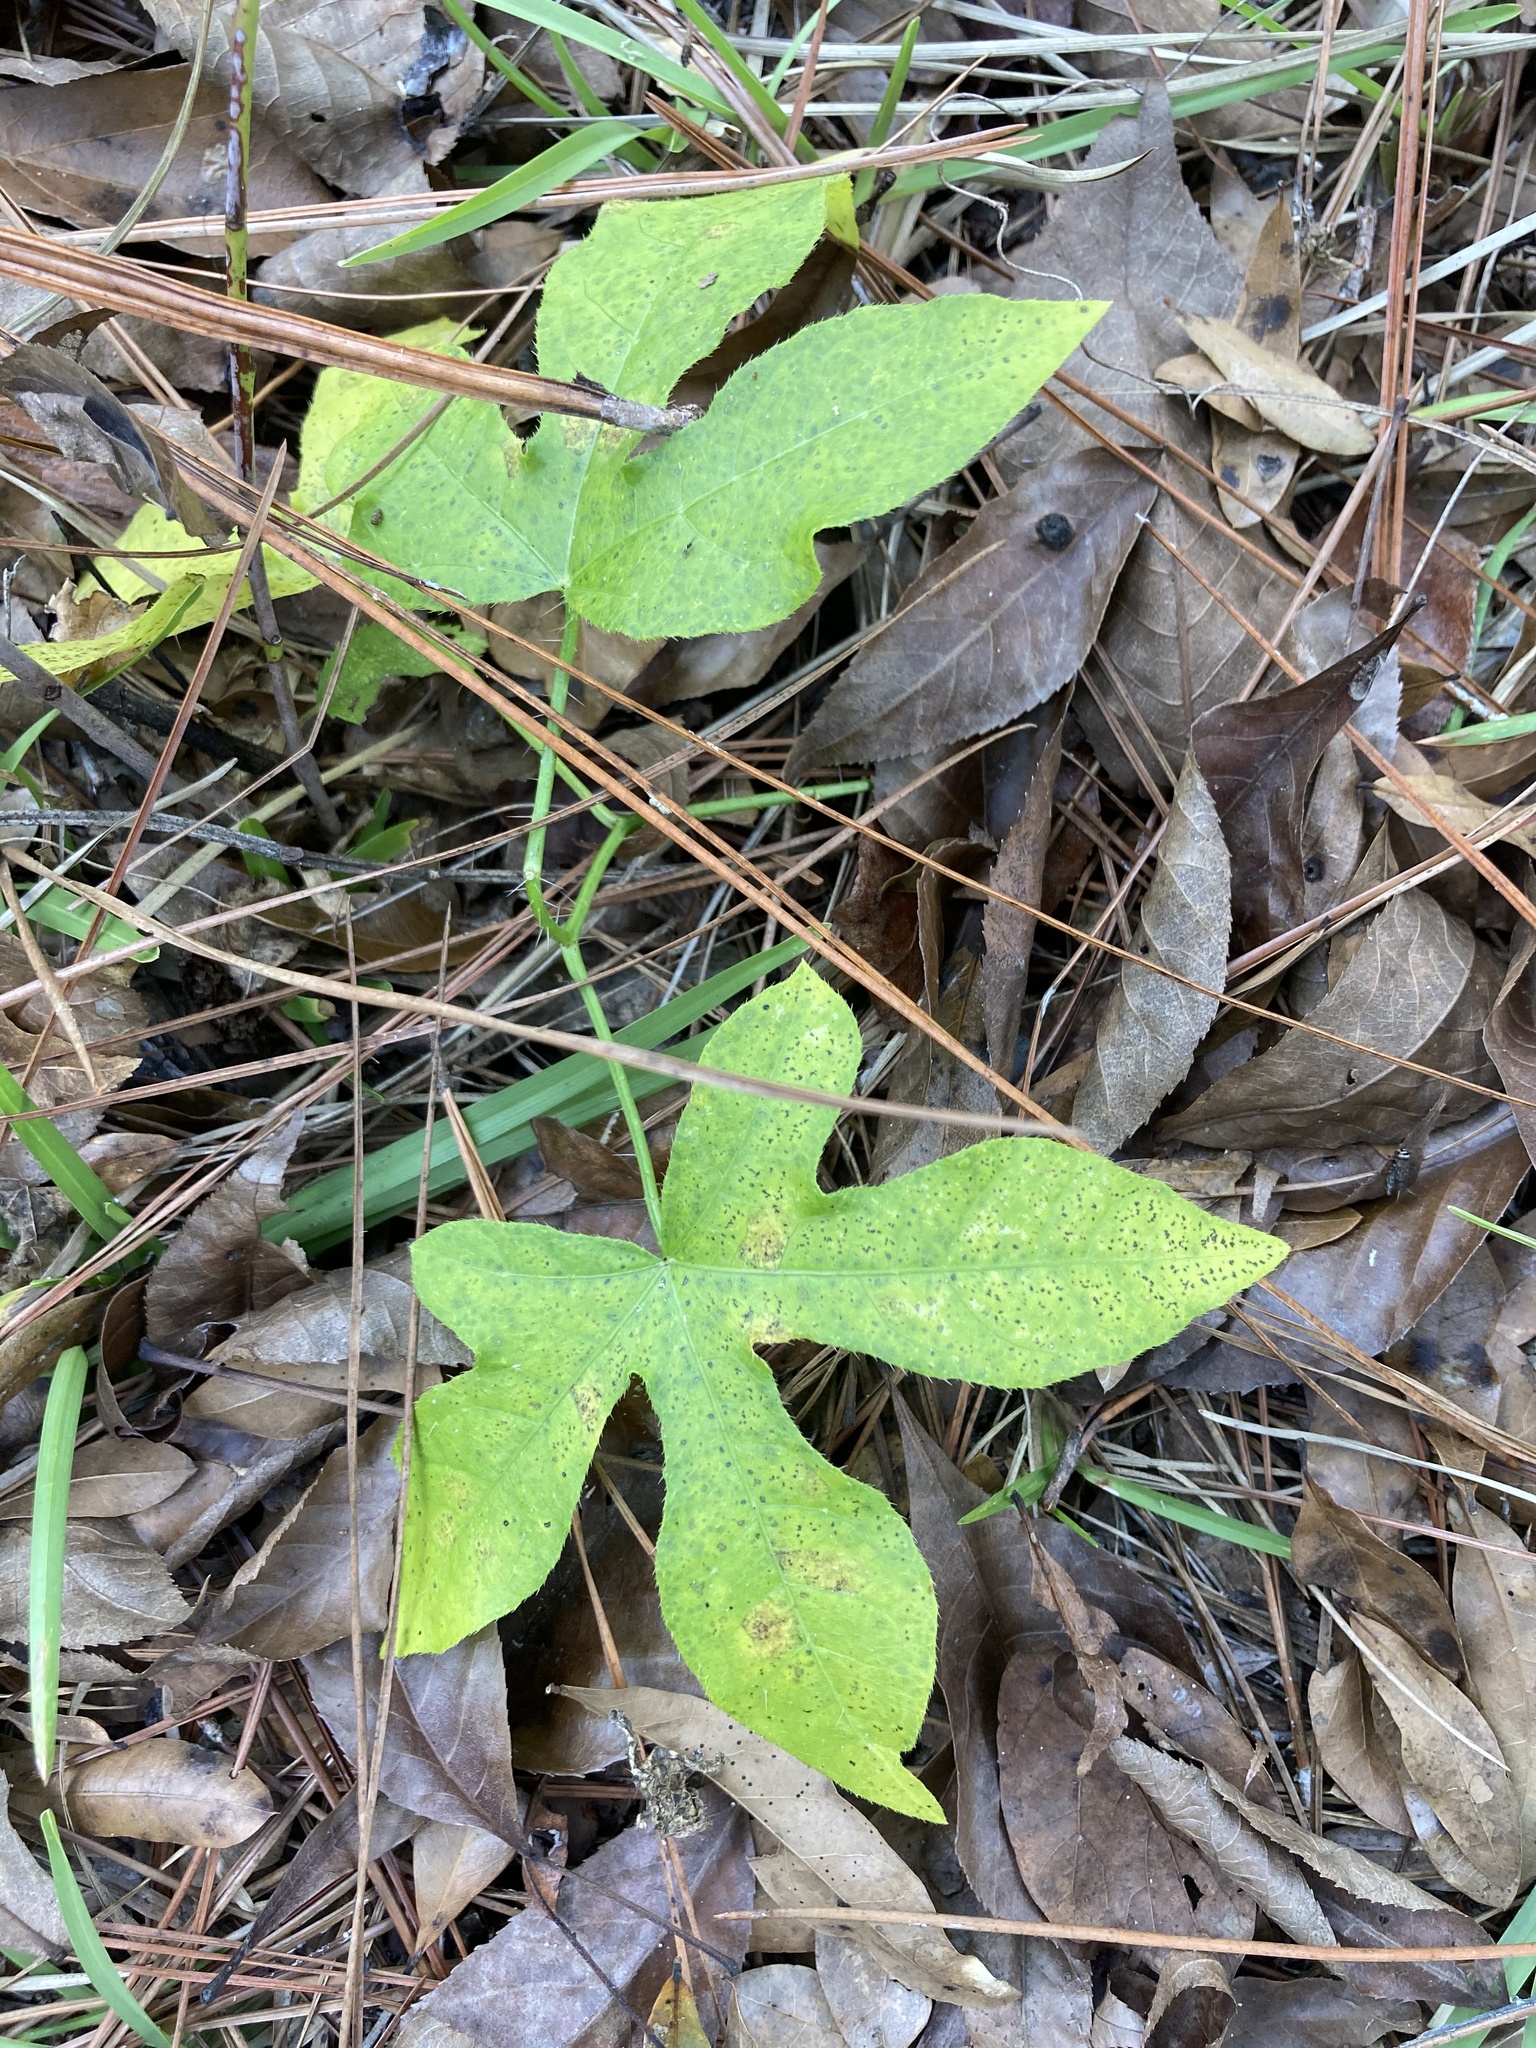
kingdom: Plantae
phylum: Tracheophyta
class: Magnoliopsida
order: Malpighiales
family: Euphorbiaceae
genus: Cnidoscolus
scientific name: Cnidoscolus stimulosus
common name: Bull-nettle
